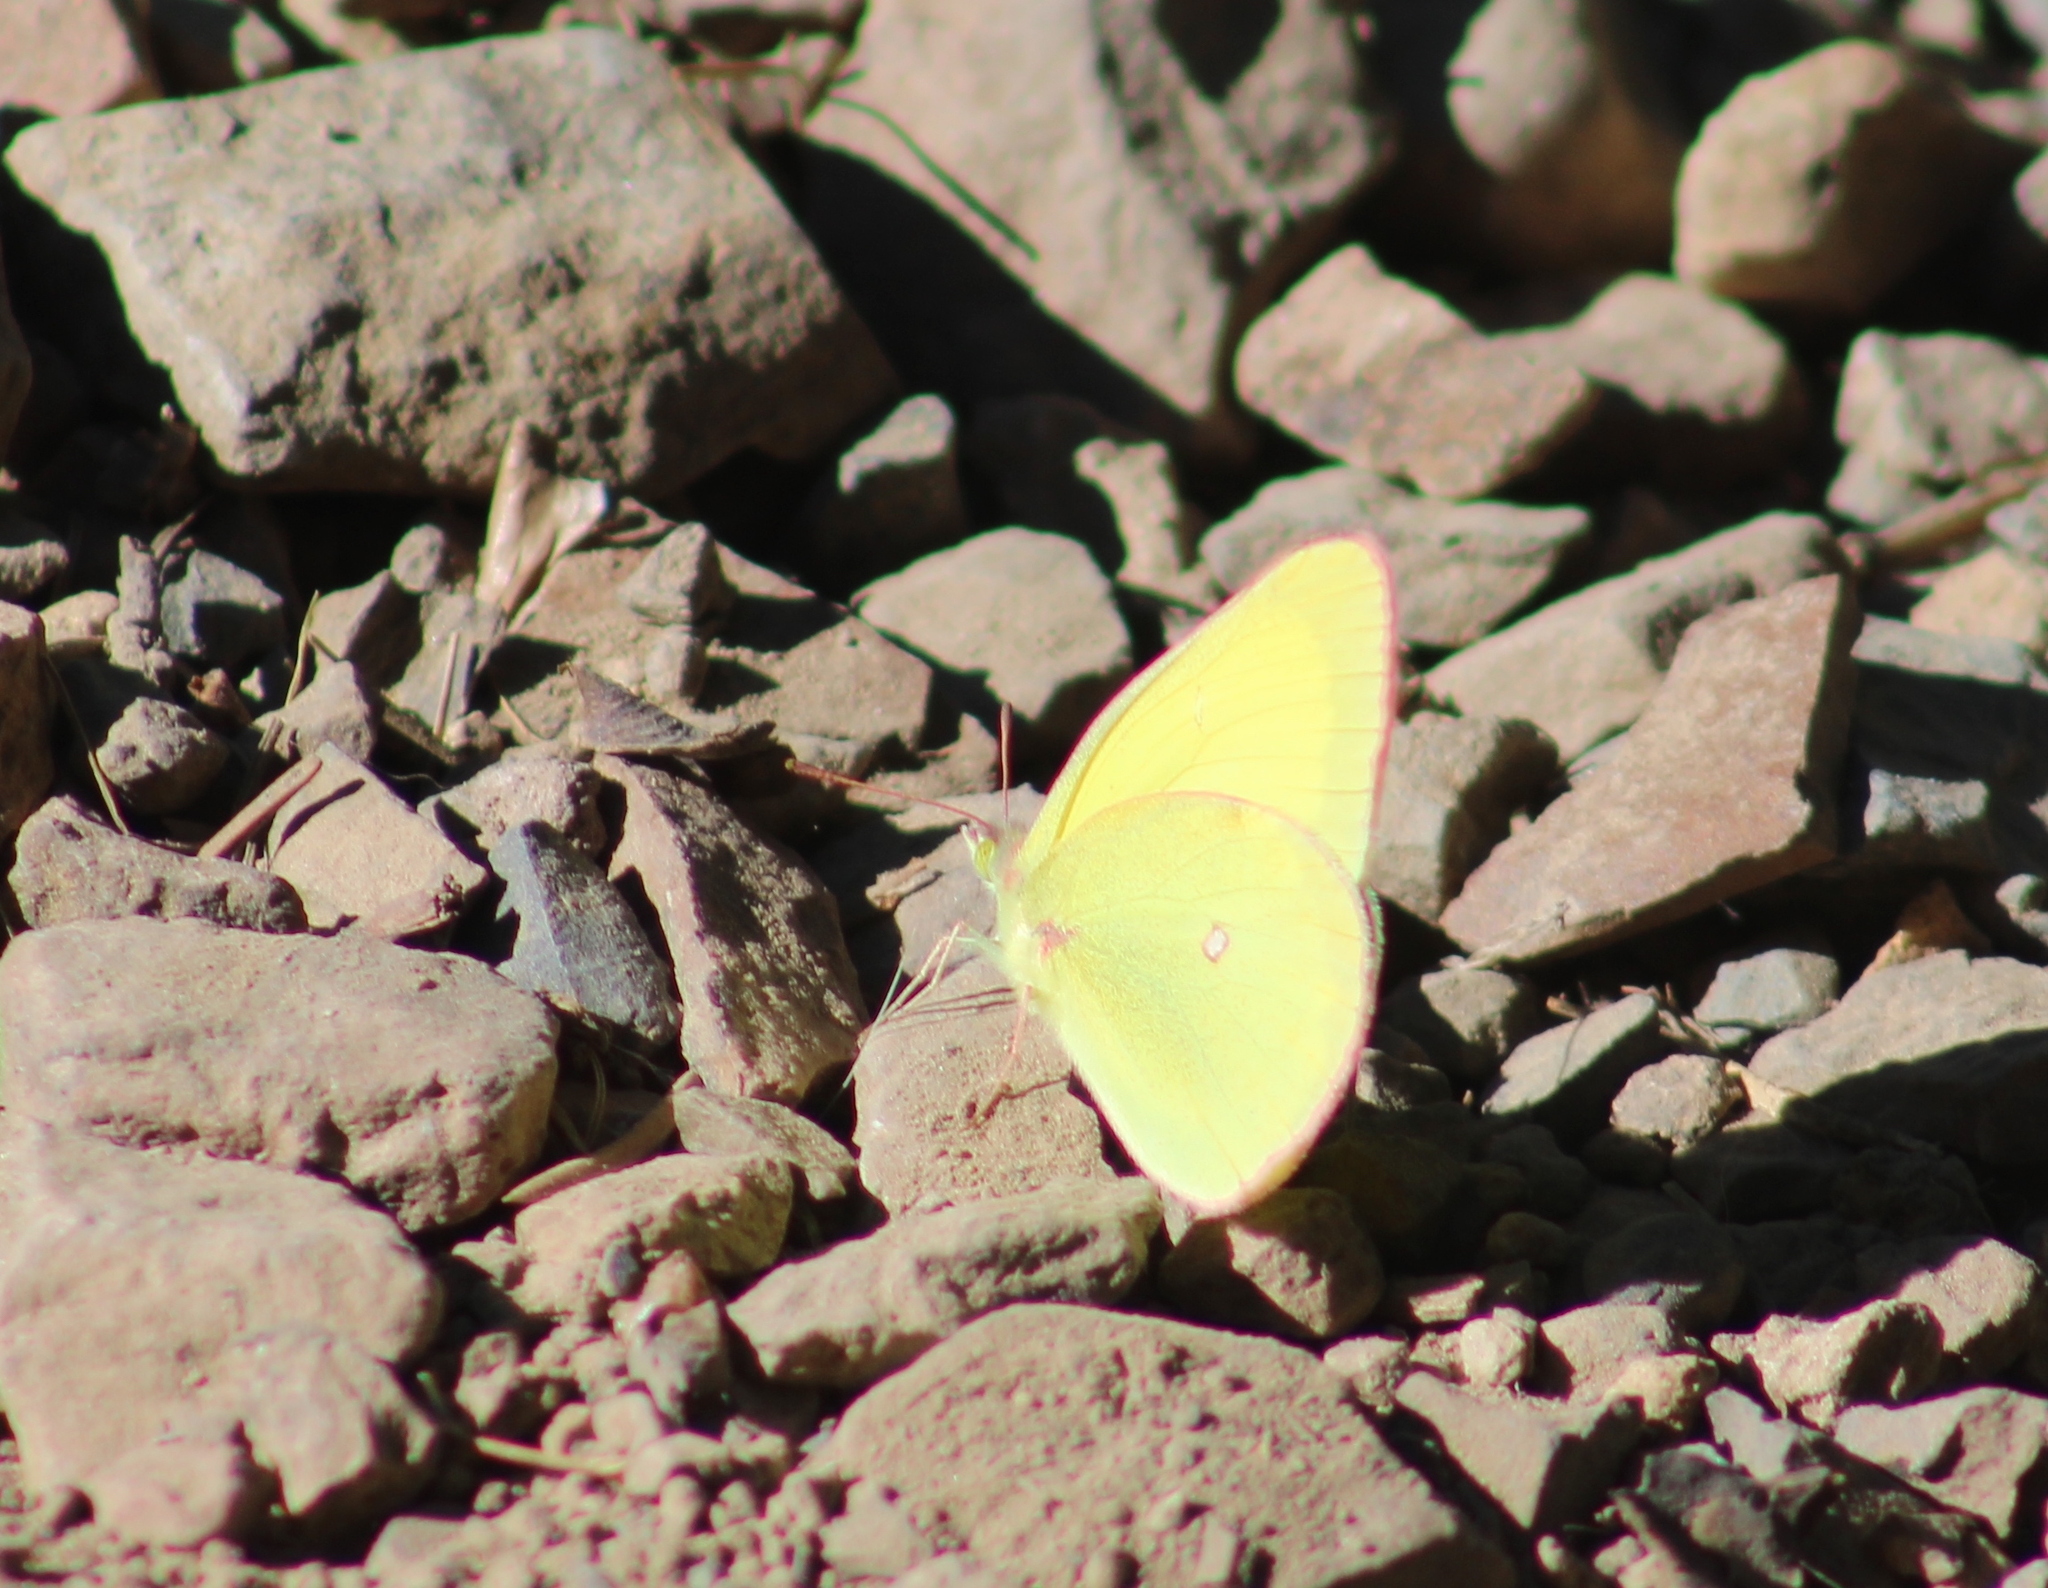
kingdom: Animalia
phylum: Arthropoda
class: Insecta
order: Lepidoptera
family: Pieridae
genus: Colias
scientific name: Colias interior
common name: Pink-edged sulphur
